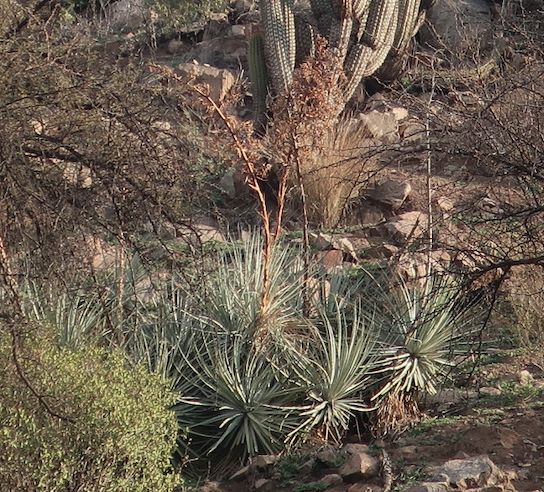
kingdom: Plantae
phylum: Tracheophyta
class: Liliopsida
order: Poales
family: Bromeliaceae
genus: Puya
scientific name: Puya coerulea
